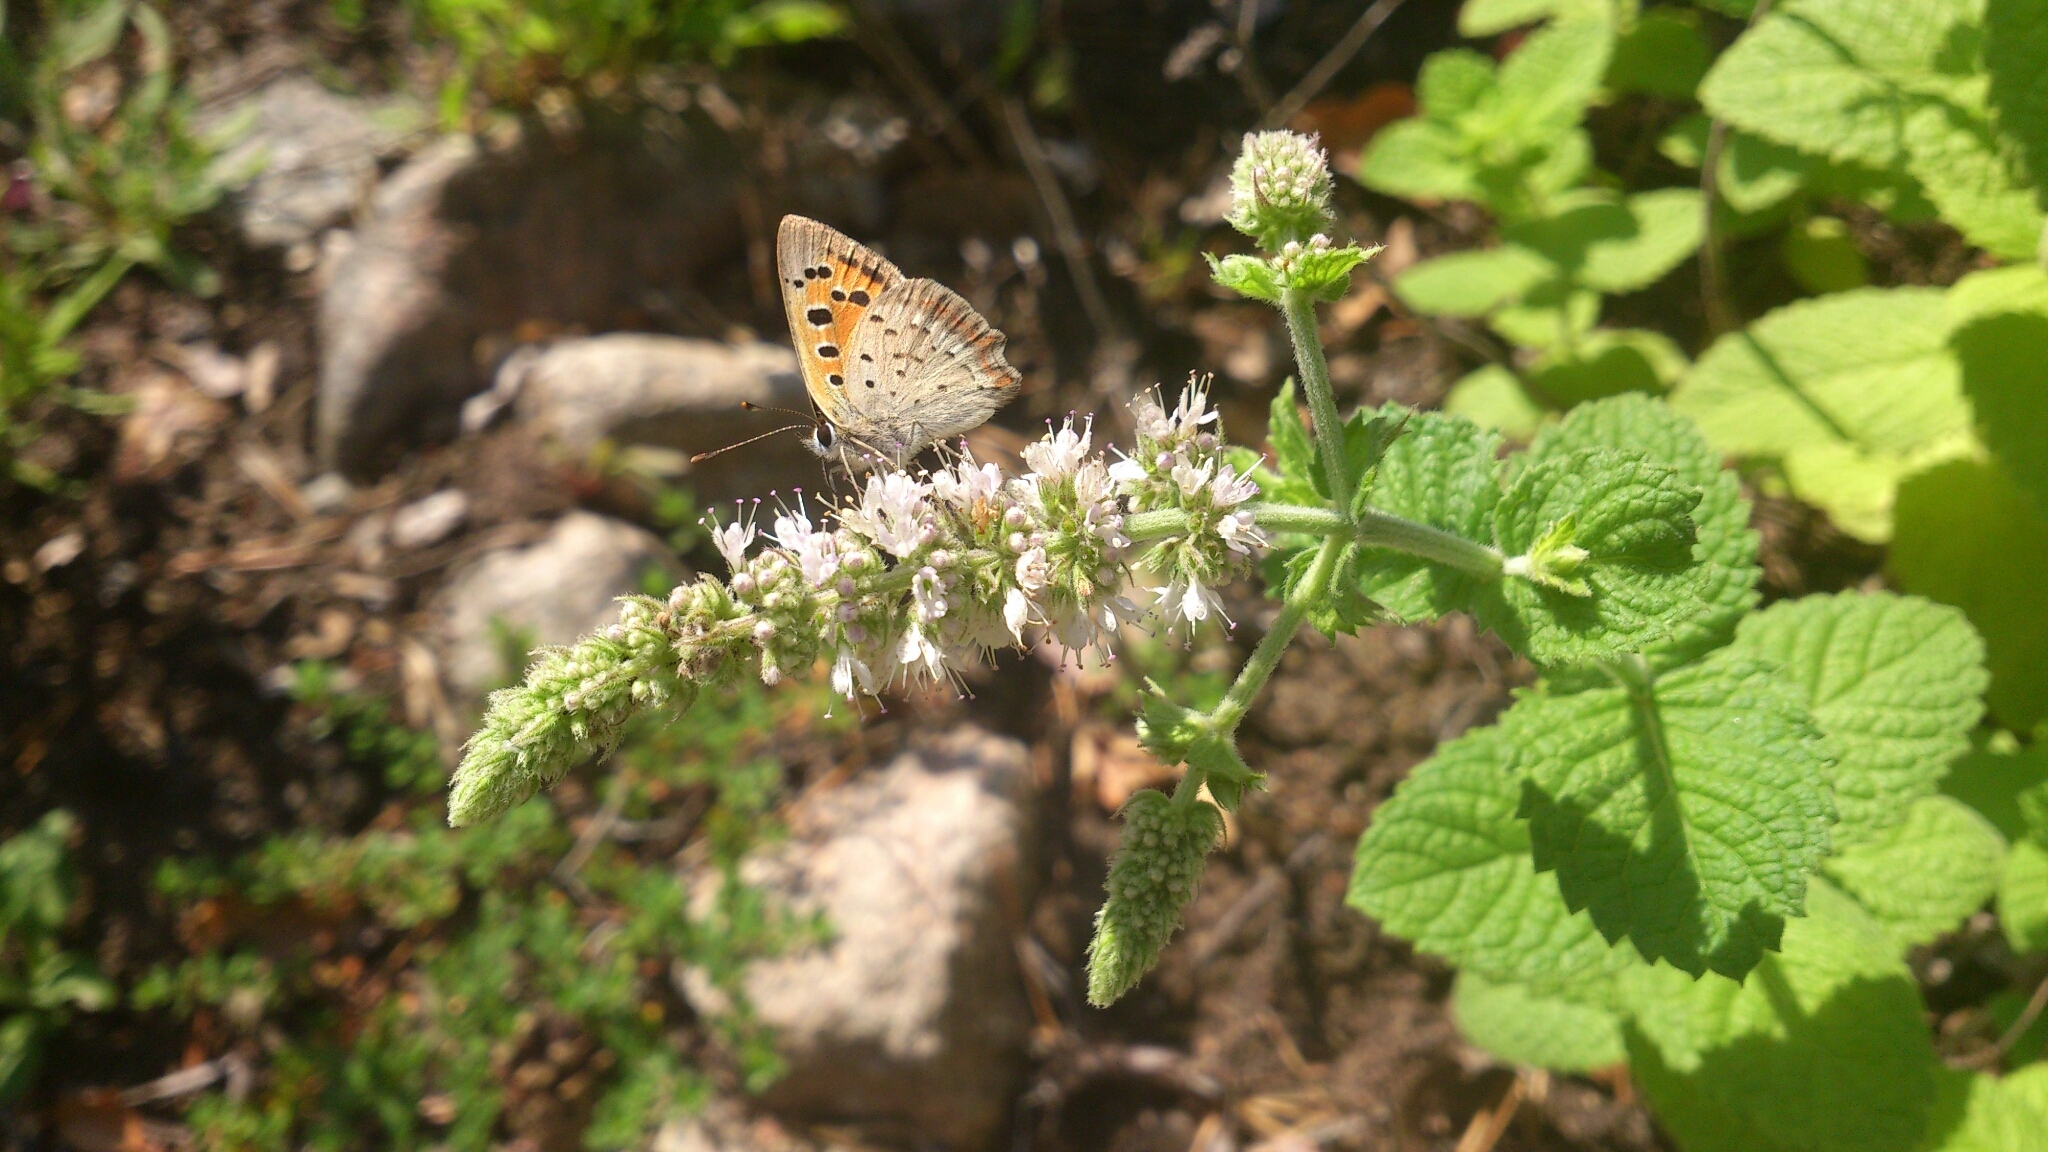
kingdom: Animalia
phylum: Arthropoda
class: Insecta
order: Lepidoptera
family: Lycaenidae
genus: Lycaena
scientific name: Lycaena phlaeas
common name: Small copper
